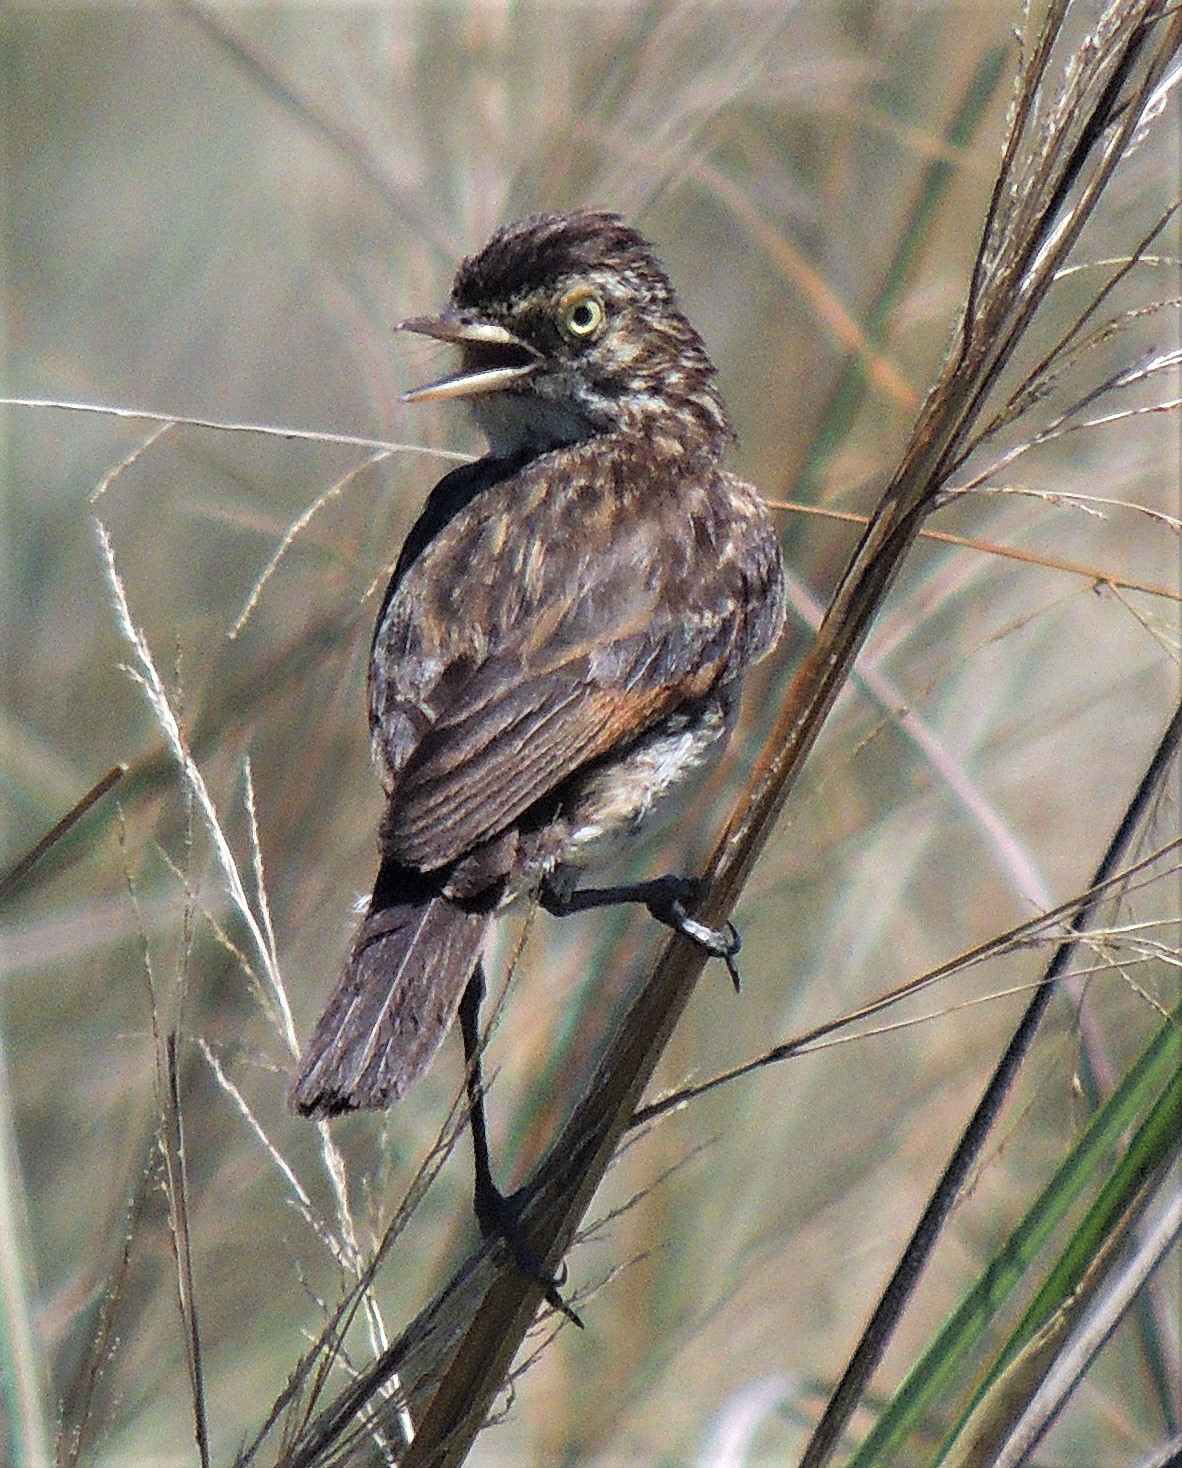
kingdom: Animalia
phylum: Chordata
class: Aves
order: Passeriformes
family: Tyrannidae
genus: Hymenops
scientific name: Hymenops perspicillatus
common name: Spectacled tyrant
